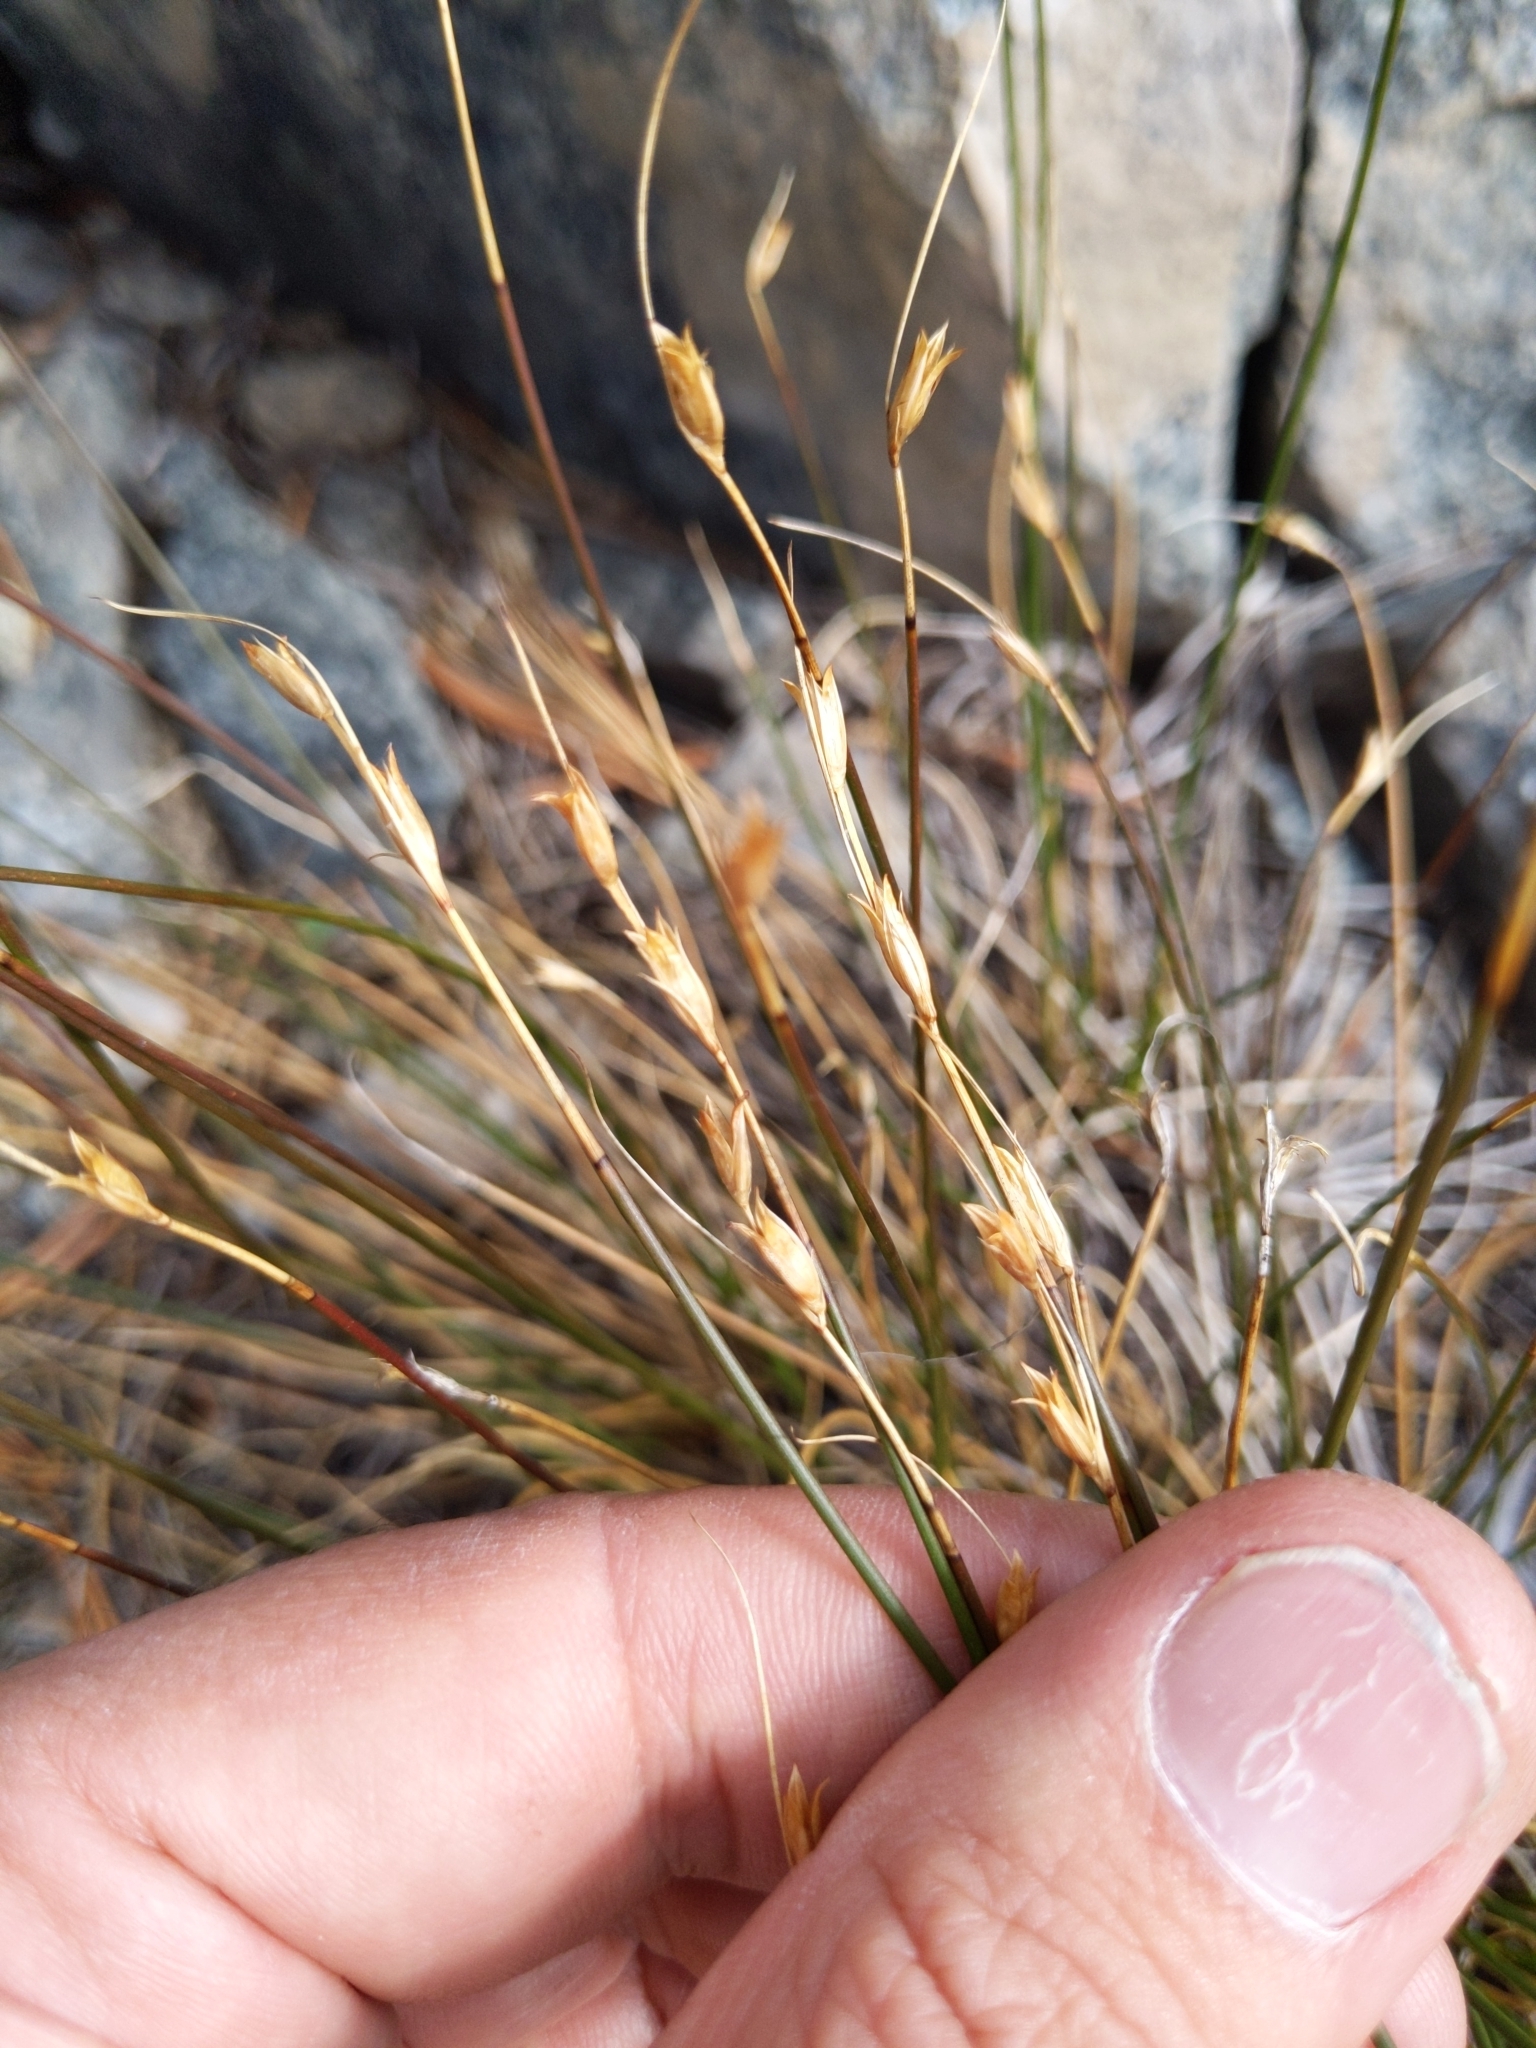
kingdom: Plantae
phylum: Tracheophyta
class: Liliopsida
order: Poales
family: Juncaceae
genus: Juncus
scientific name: Juncus parryi
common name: Parry's rush
